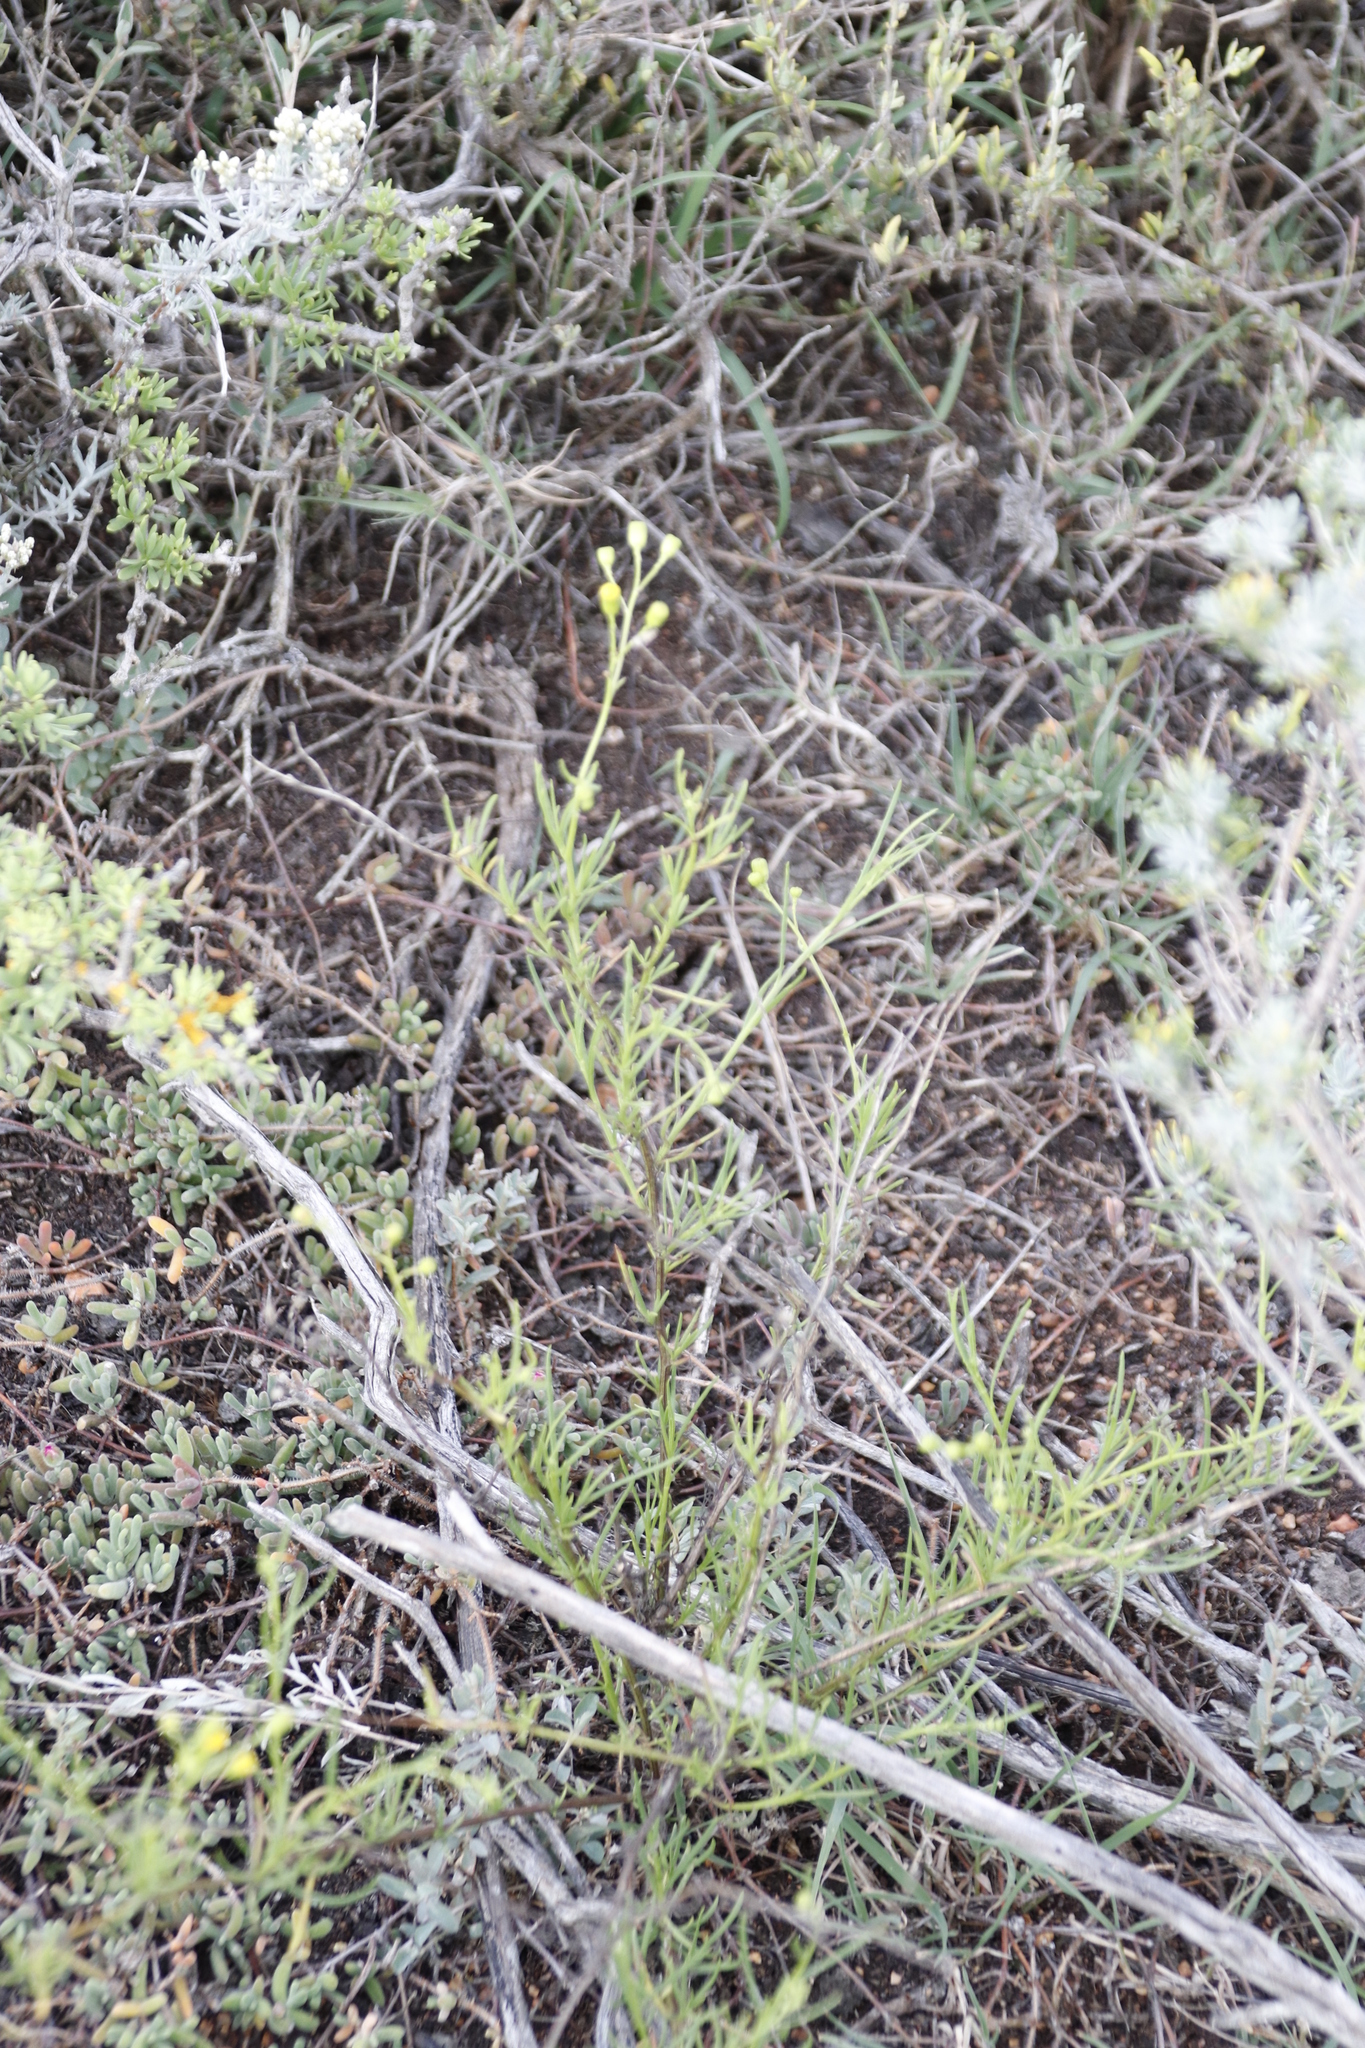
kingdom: Plantae
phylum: Tracheophyta
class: Magnoliopsida
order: Asterales
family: Asteraceae
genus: Senecio
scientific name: Senecio burchellii
